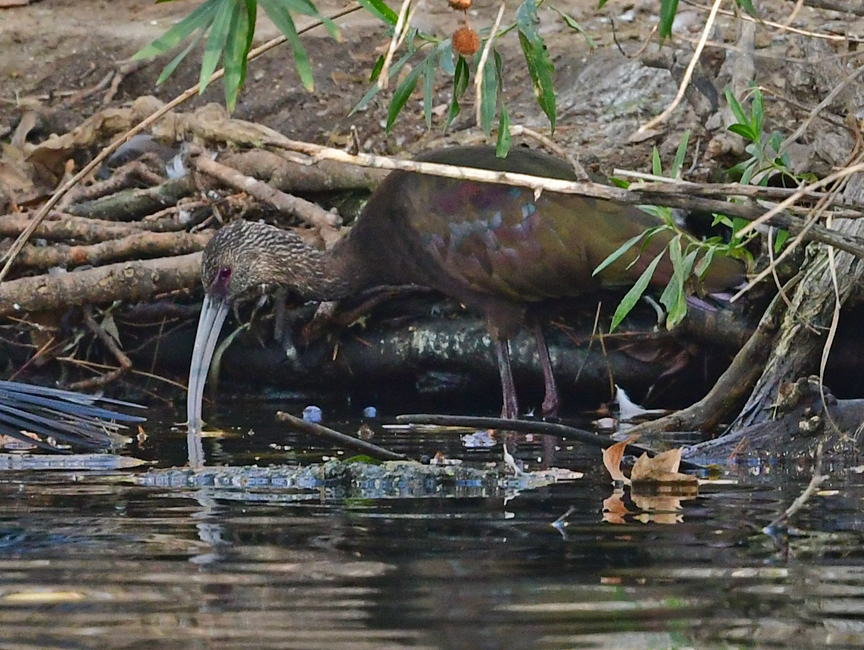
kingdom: Animalia
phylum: Chordata
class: Aves
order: Pelecaniformes
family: Threskiornithidae
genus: Plegadis
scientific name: Plegadis chihi
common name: White-faced ibis
